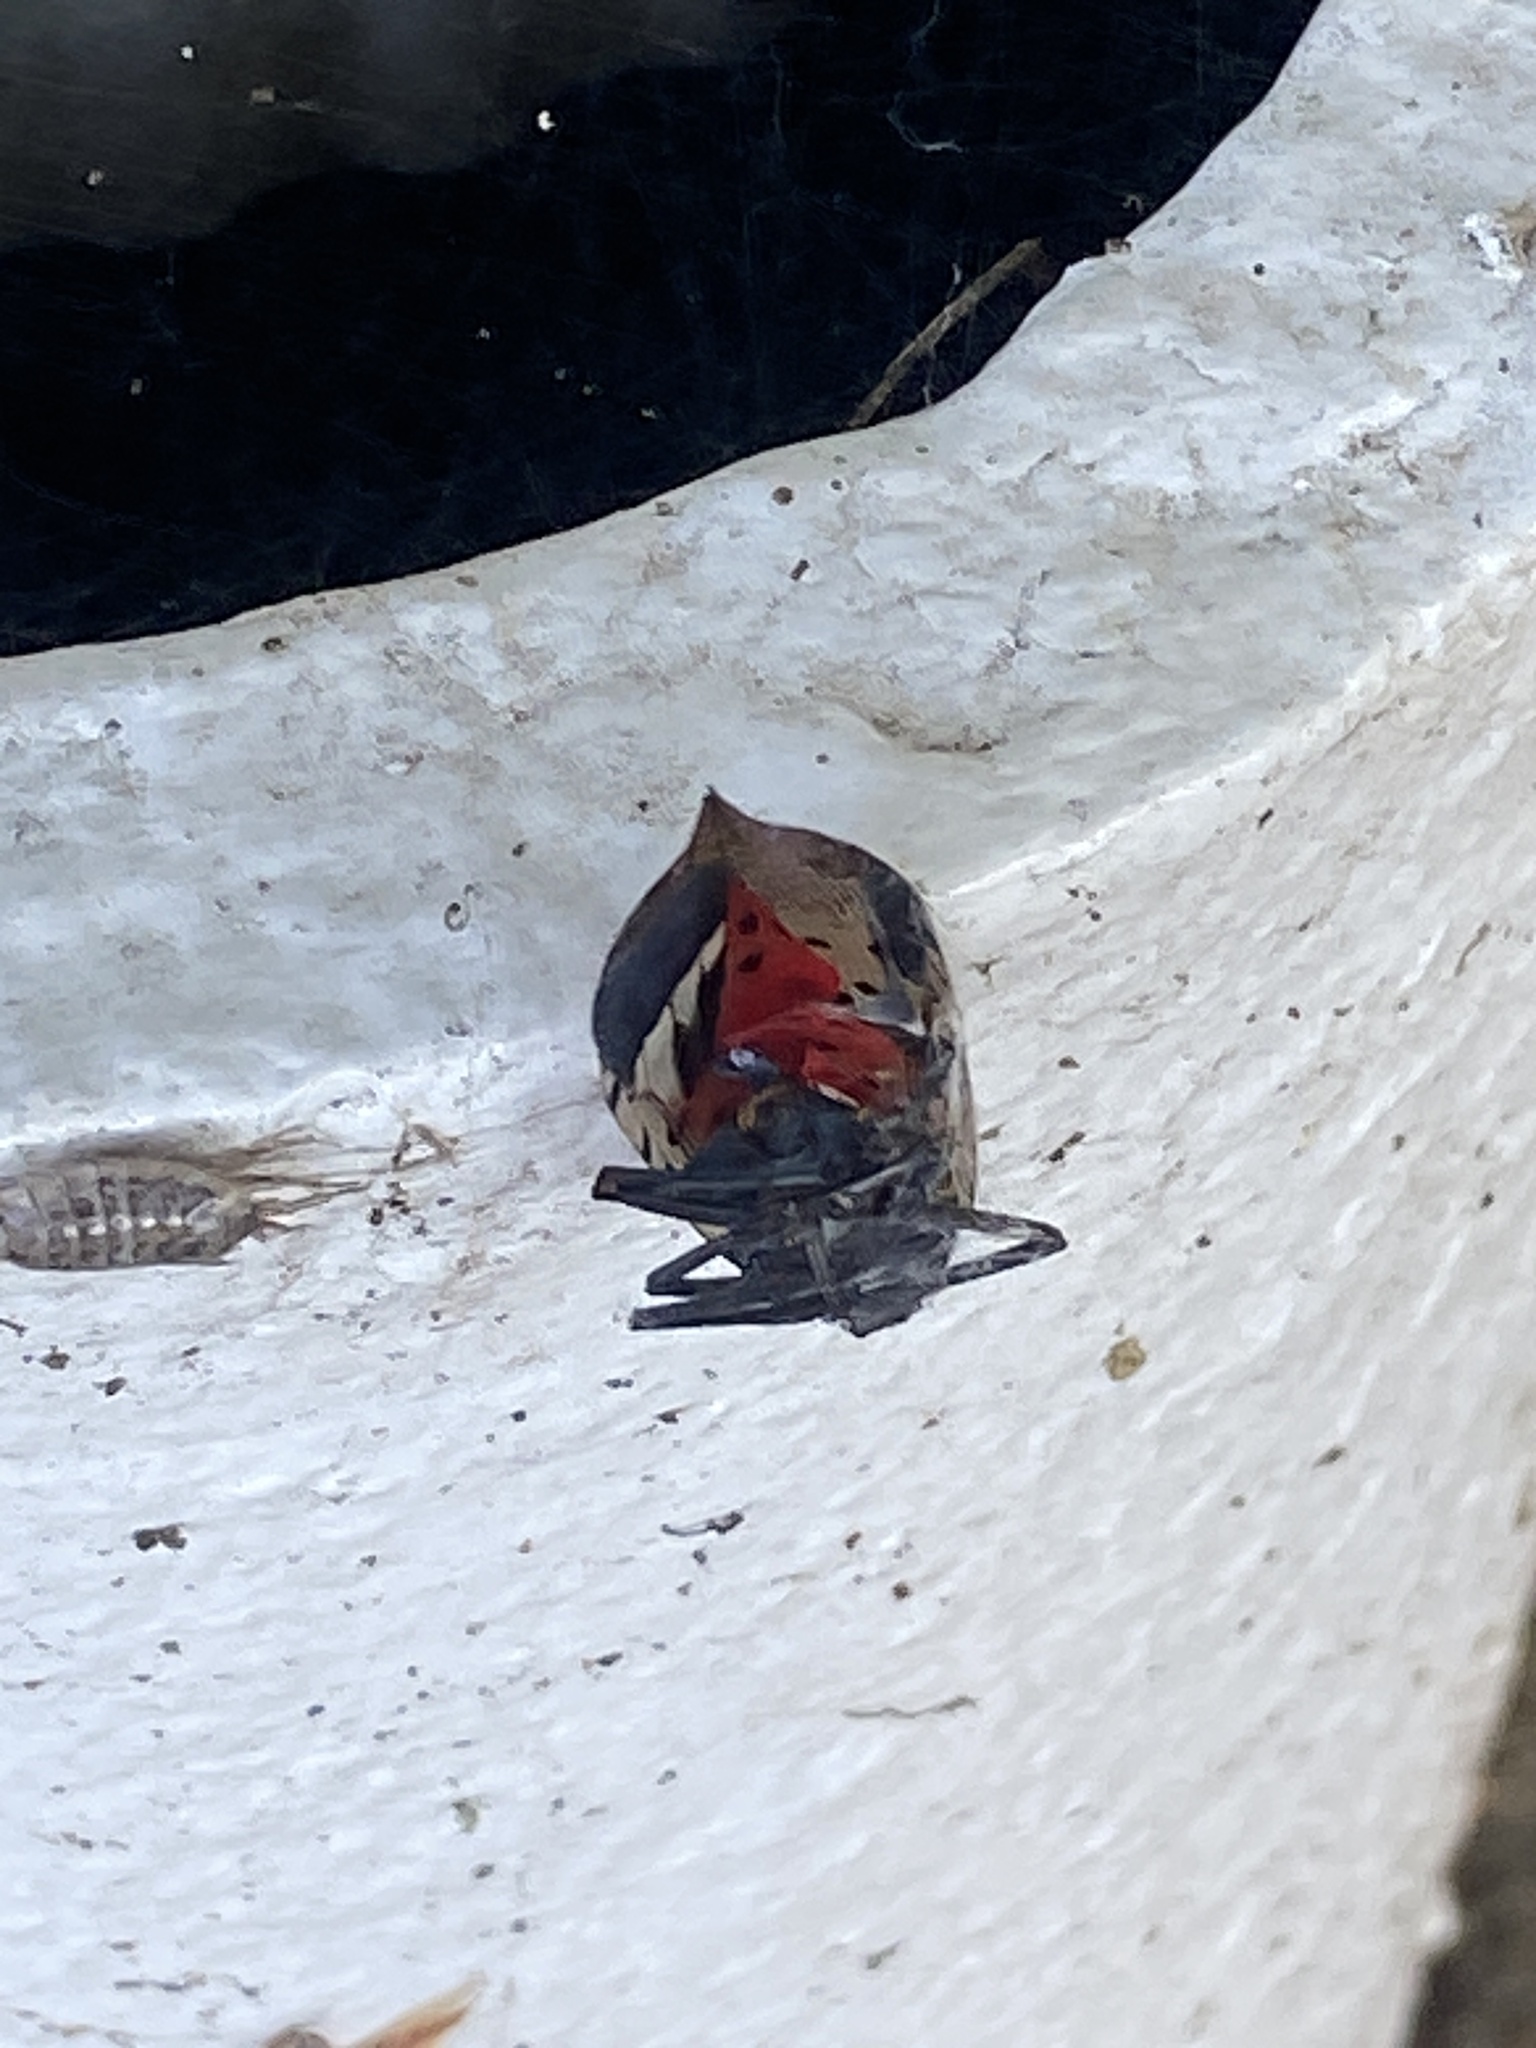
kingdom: Animalia
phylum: Arthropoda
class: Insecta
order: Hemiptera
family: Fulgoridae
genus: Lycorma
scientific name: Lycorma delicatula
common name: Spotted lanternfly
